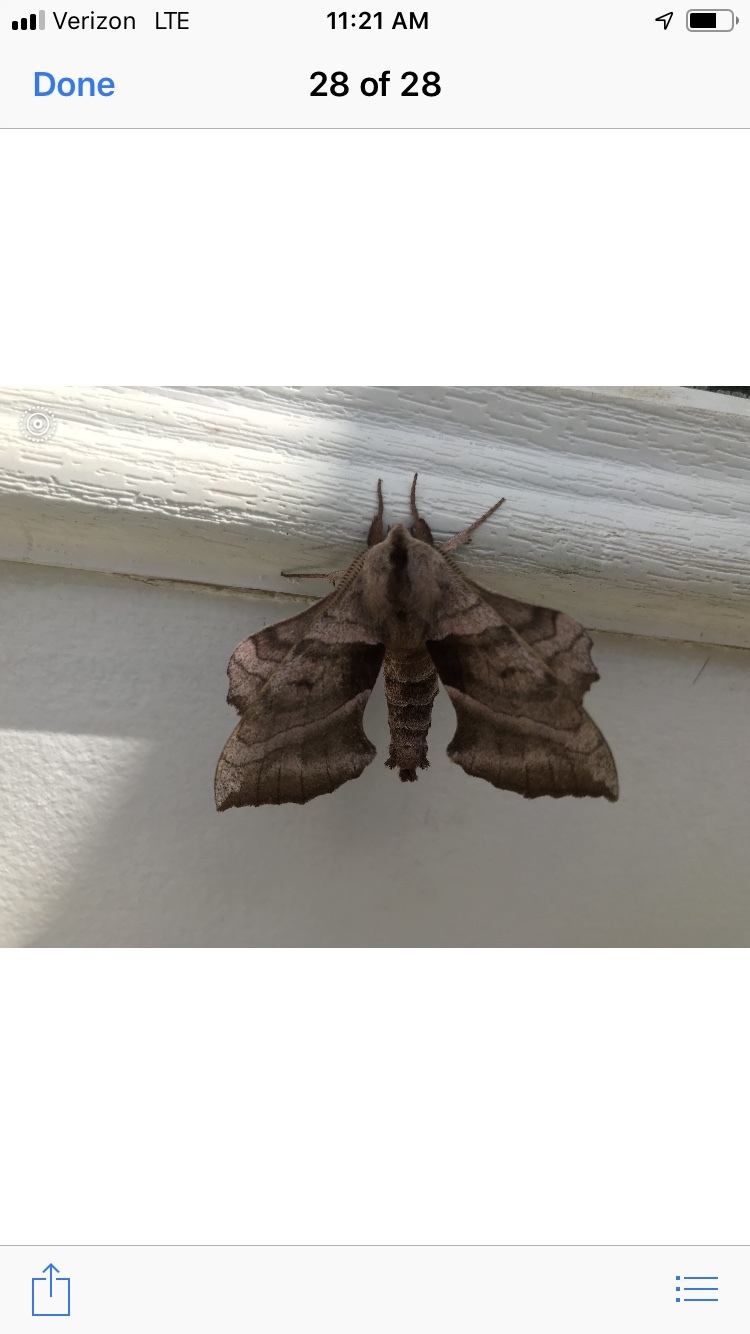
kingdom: Animalia
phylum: Arthropoda
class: Insecta
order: Lepidoptera
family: Sphingidae
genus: Amorpha
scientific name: Amorpha juglandis
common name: Walnut sphinx
